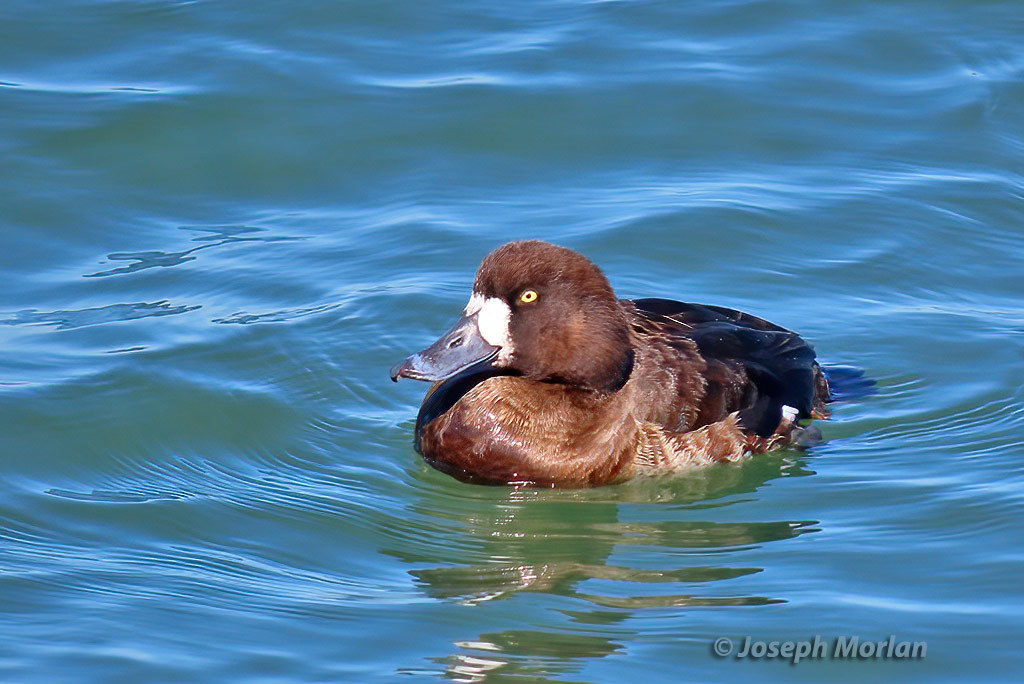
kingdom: Animalia
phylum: Chordata
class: Aves
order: Anseriformes
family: Anatidae
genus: Aythya
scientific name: Aythya marila
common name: Greater scaup
